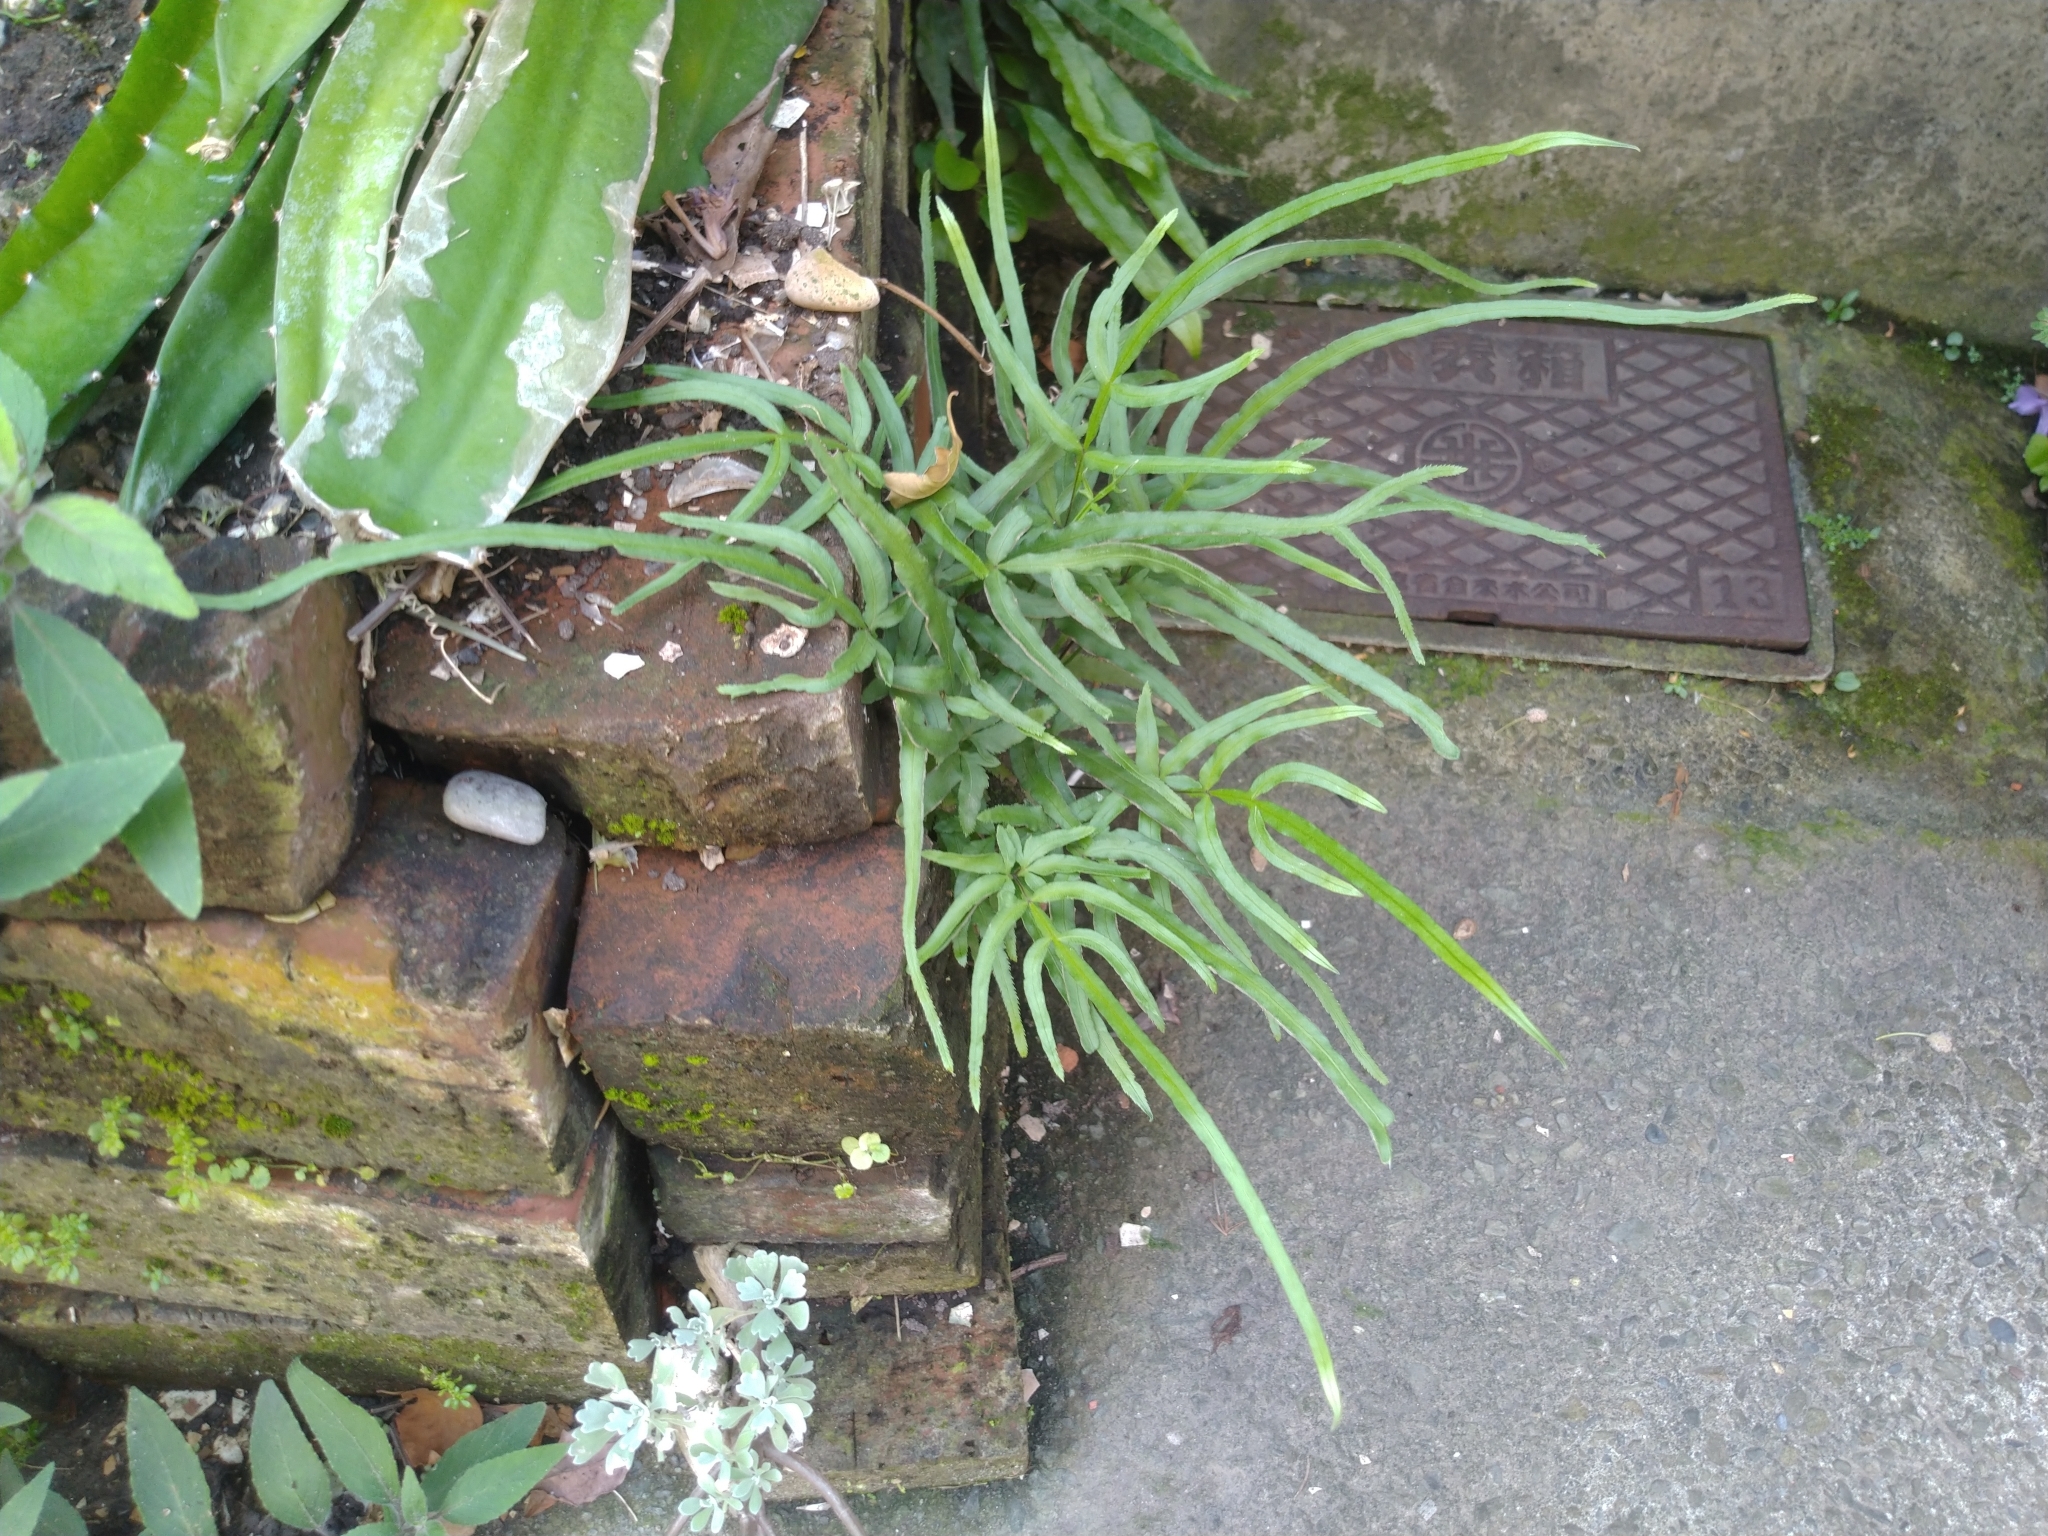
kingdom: Plantae
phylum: Tracheophyta
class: Polypodiopsida
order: Polypodiales
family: Pteridaceae
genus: Pteris
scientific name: Pteris multifida
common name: Spider brake
